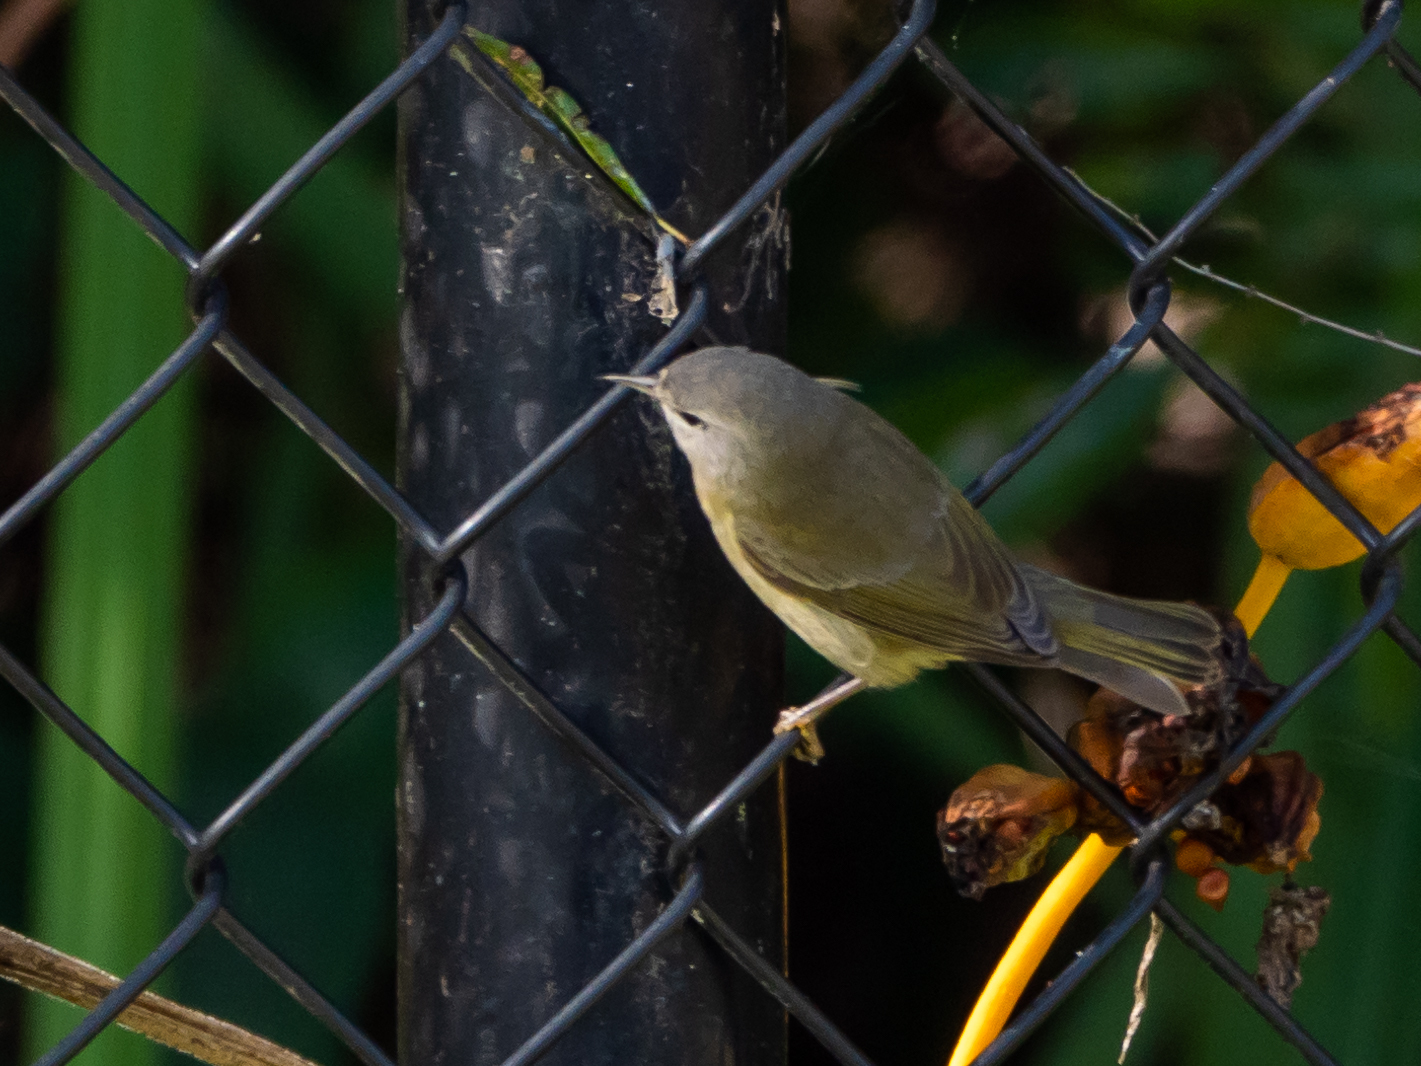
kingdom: Animalia
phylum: Chordata
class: Aves
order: Passeriformes
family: Parulidae
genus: Leiothlypis
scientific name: Leiothlypis celata
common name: Orange-crowned warbler
